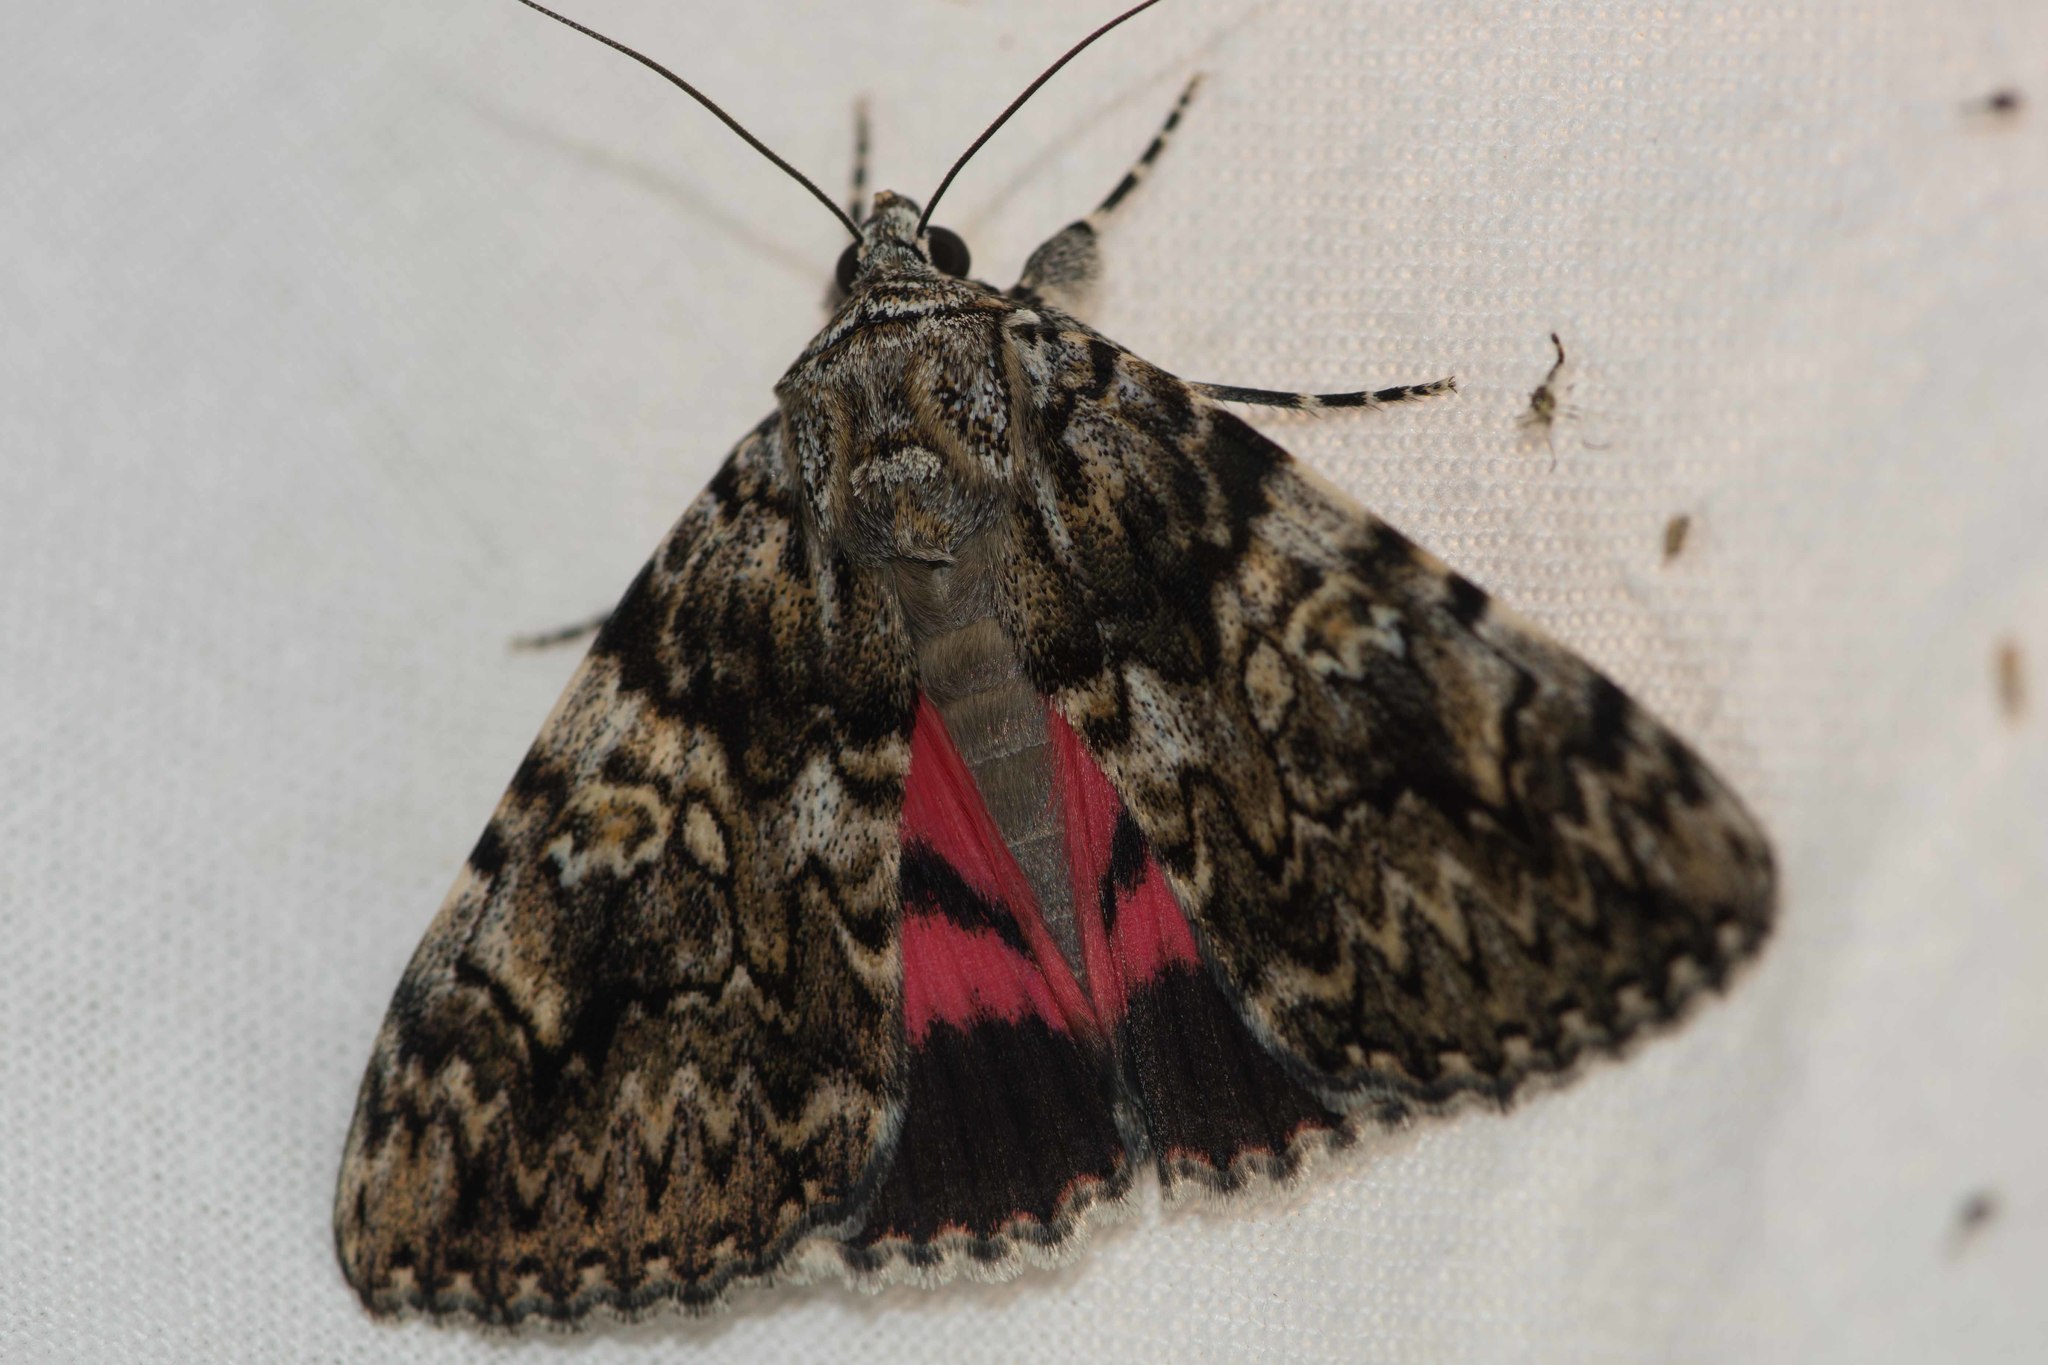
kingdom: Animalia
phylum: Arthropoda
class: Insecta
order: Lepidoptera
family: Erebidae
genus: Catocala
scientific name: Catocala promissa
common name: Light crimson underwing
